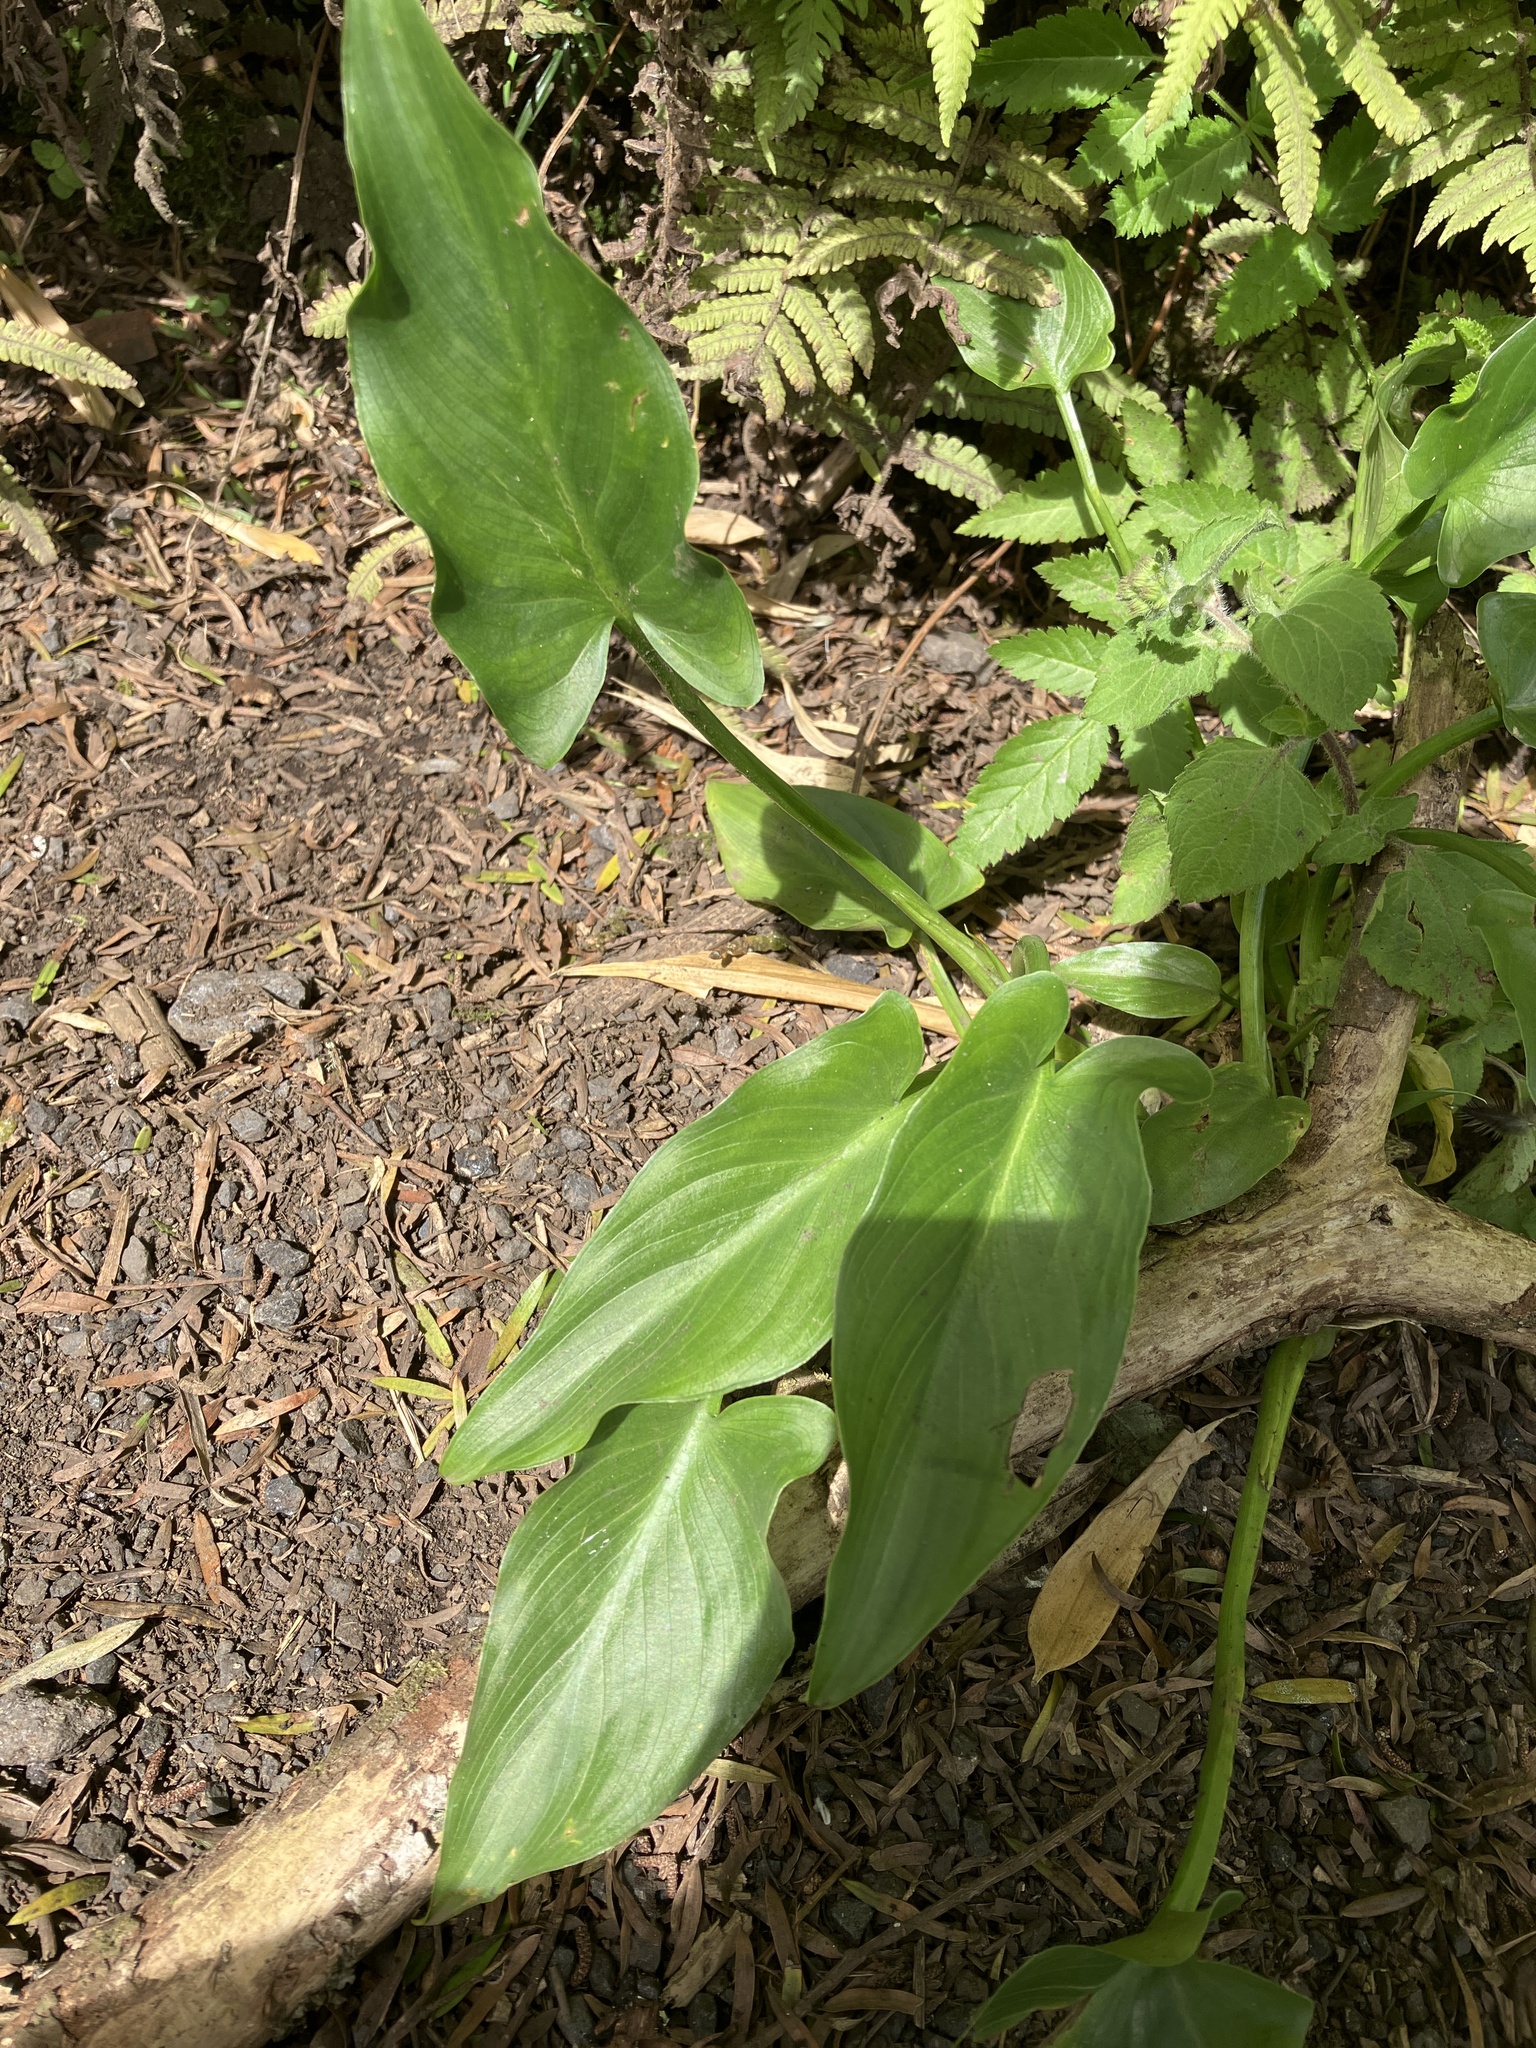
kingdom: Plantae
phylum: Tracheophyta
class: Liliopsida
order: Alismatales
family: Araceae
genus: Zantedeschia
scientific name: Zantedeschia aethiopica
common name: Altar-lily
